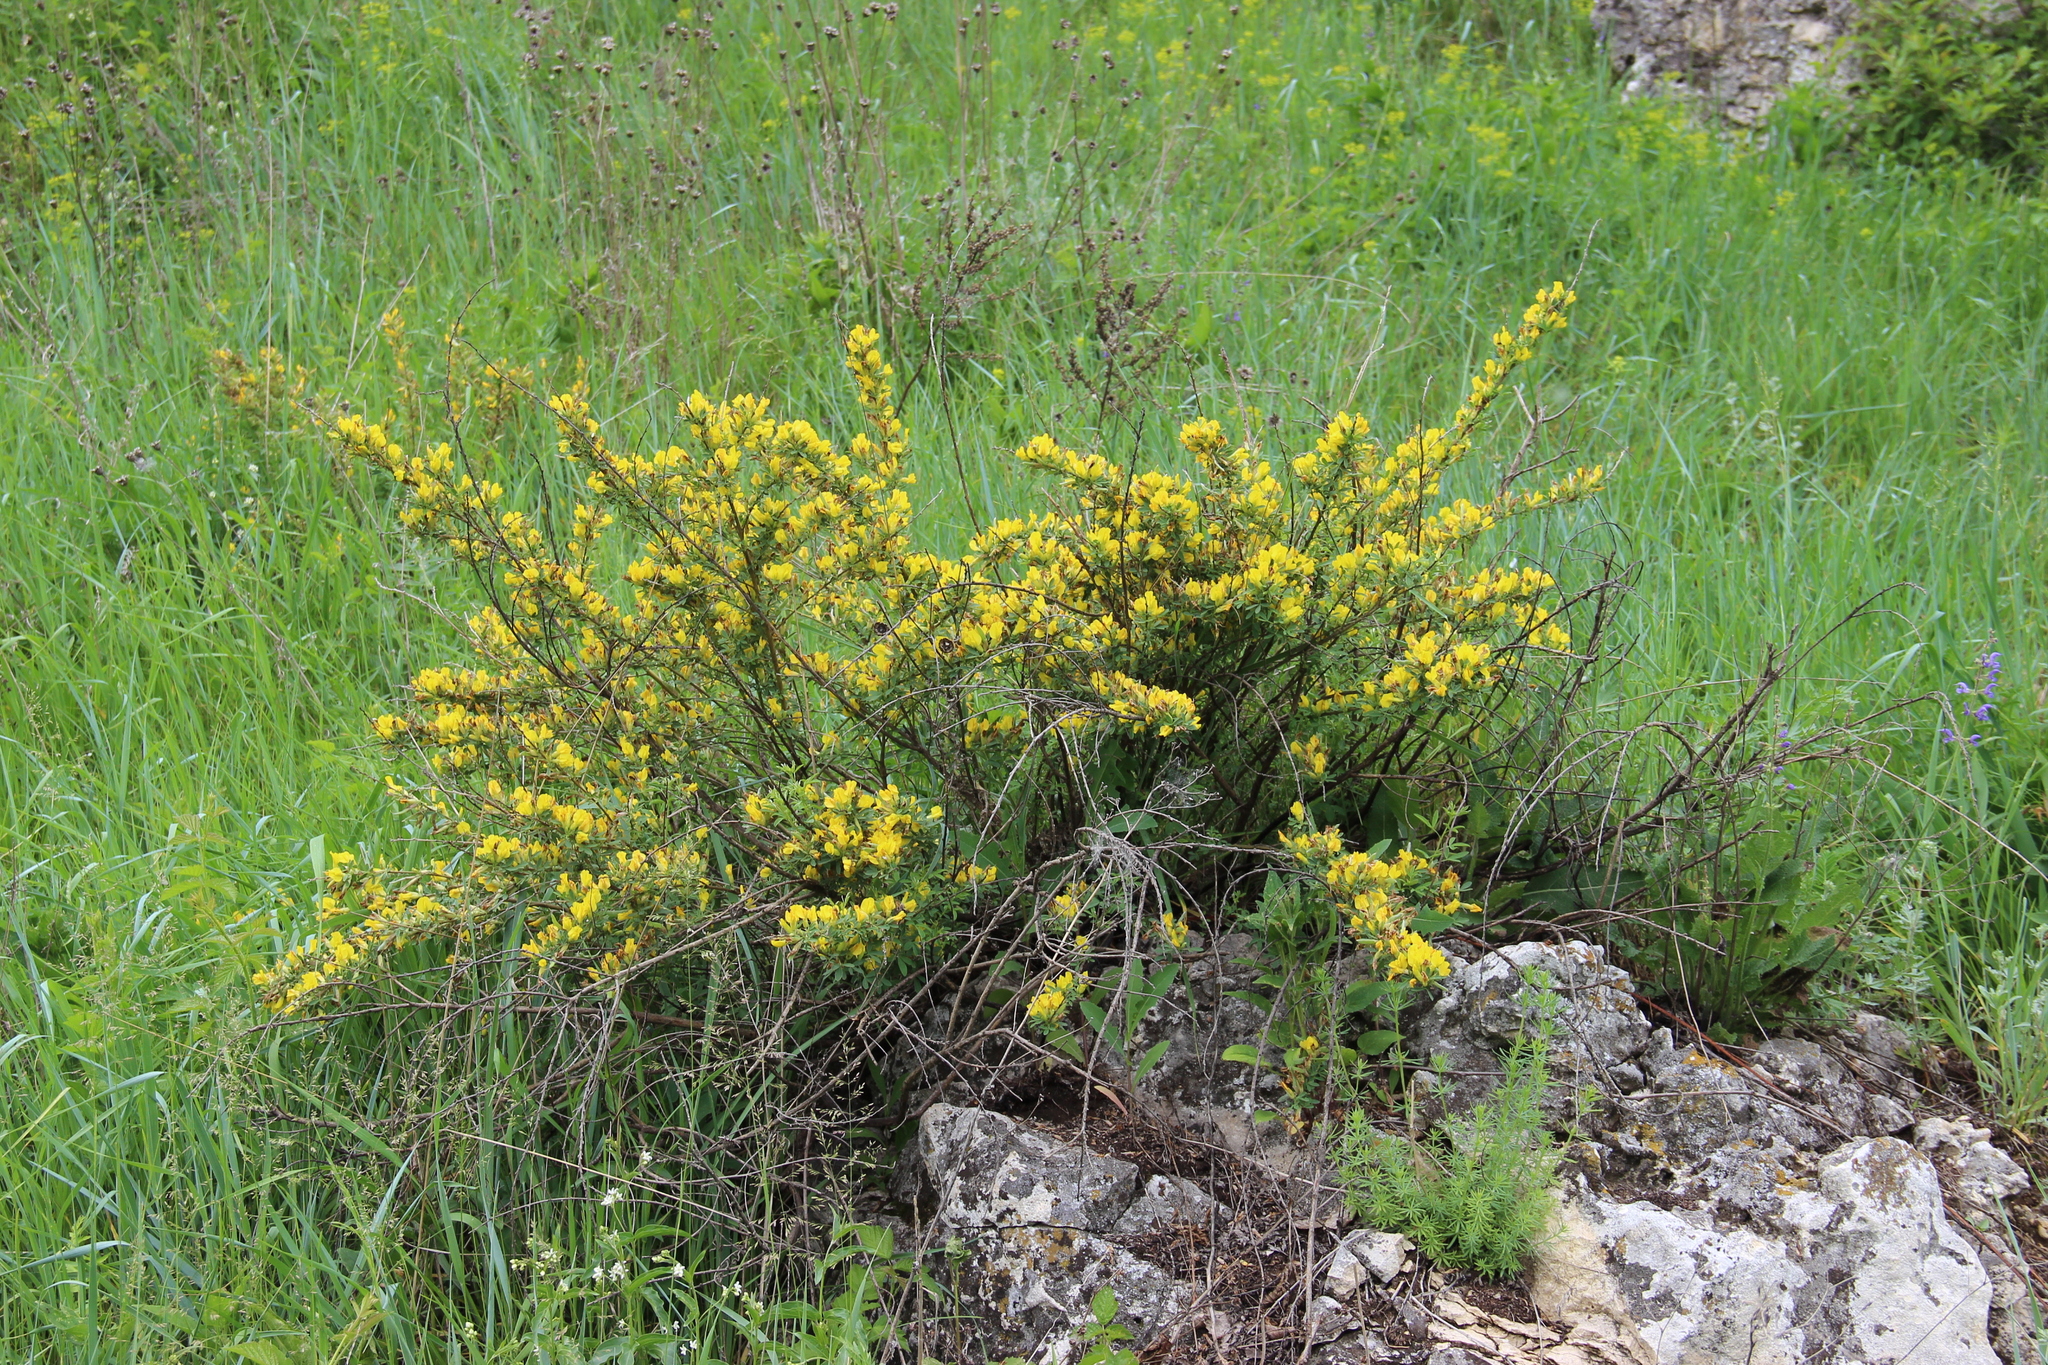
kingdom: Plantae
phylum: Tracheophyta
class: Magnoliopsida
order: Fabales
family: Fabaceae
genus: Chamaecytisus
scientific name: Chamaecytisus ruthenicus
